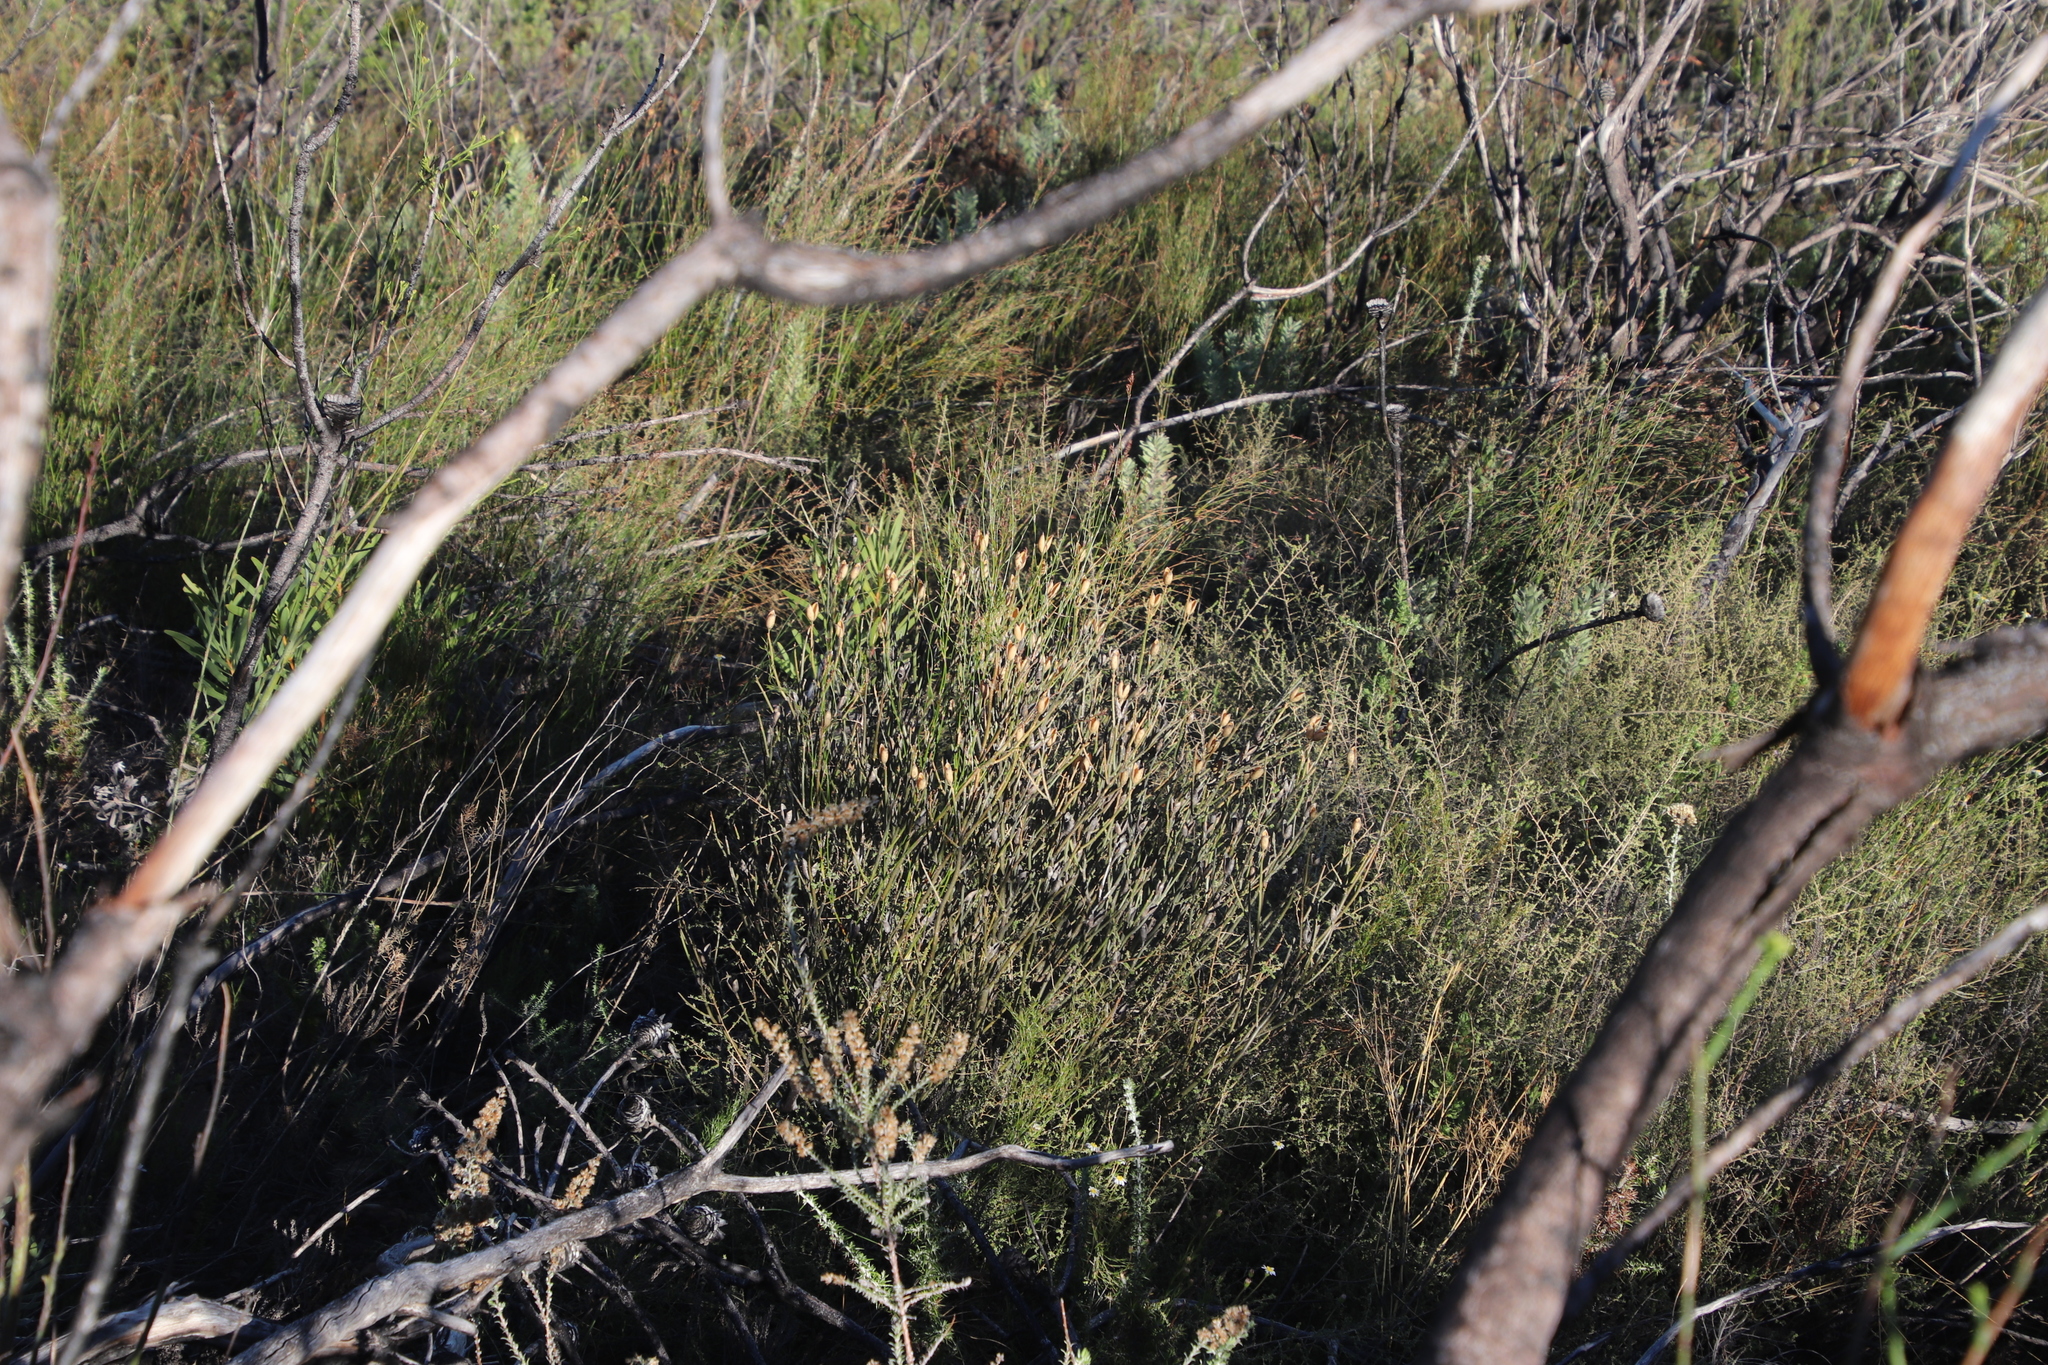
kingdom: Plantae
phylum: Tracheophyta
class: Magnoliopsida
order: Solanales
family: Montiniaceae
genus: Montinia
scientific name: Montinia caryophyllacea
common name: Wild clove-bush
